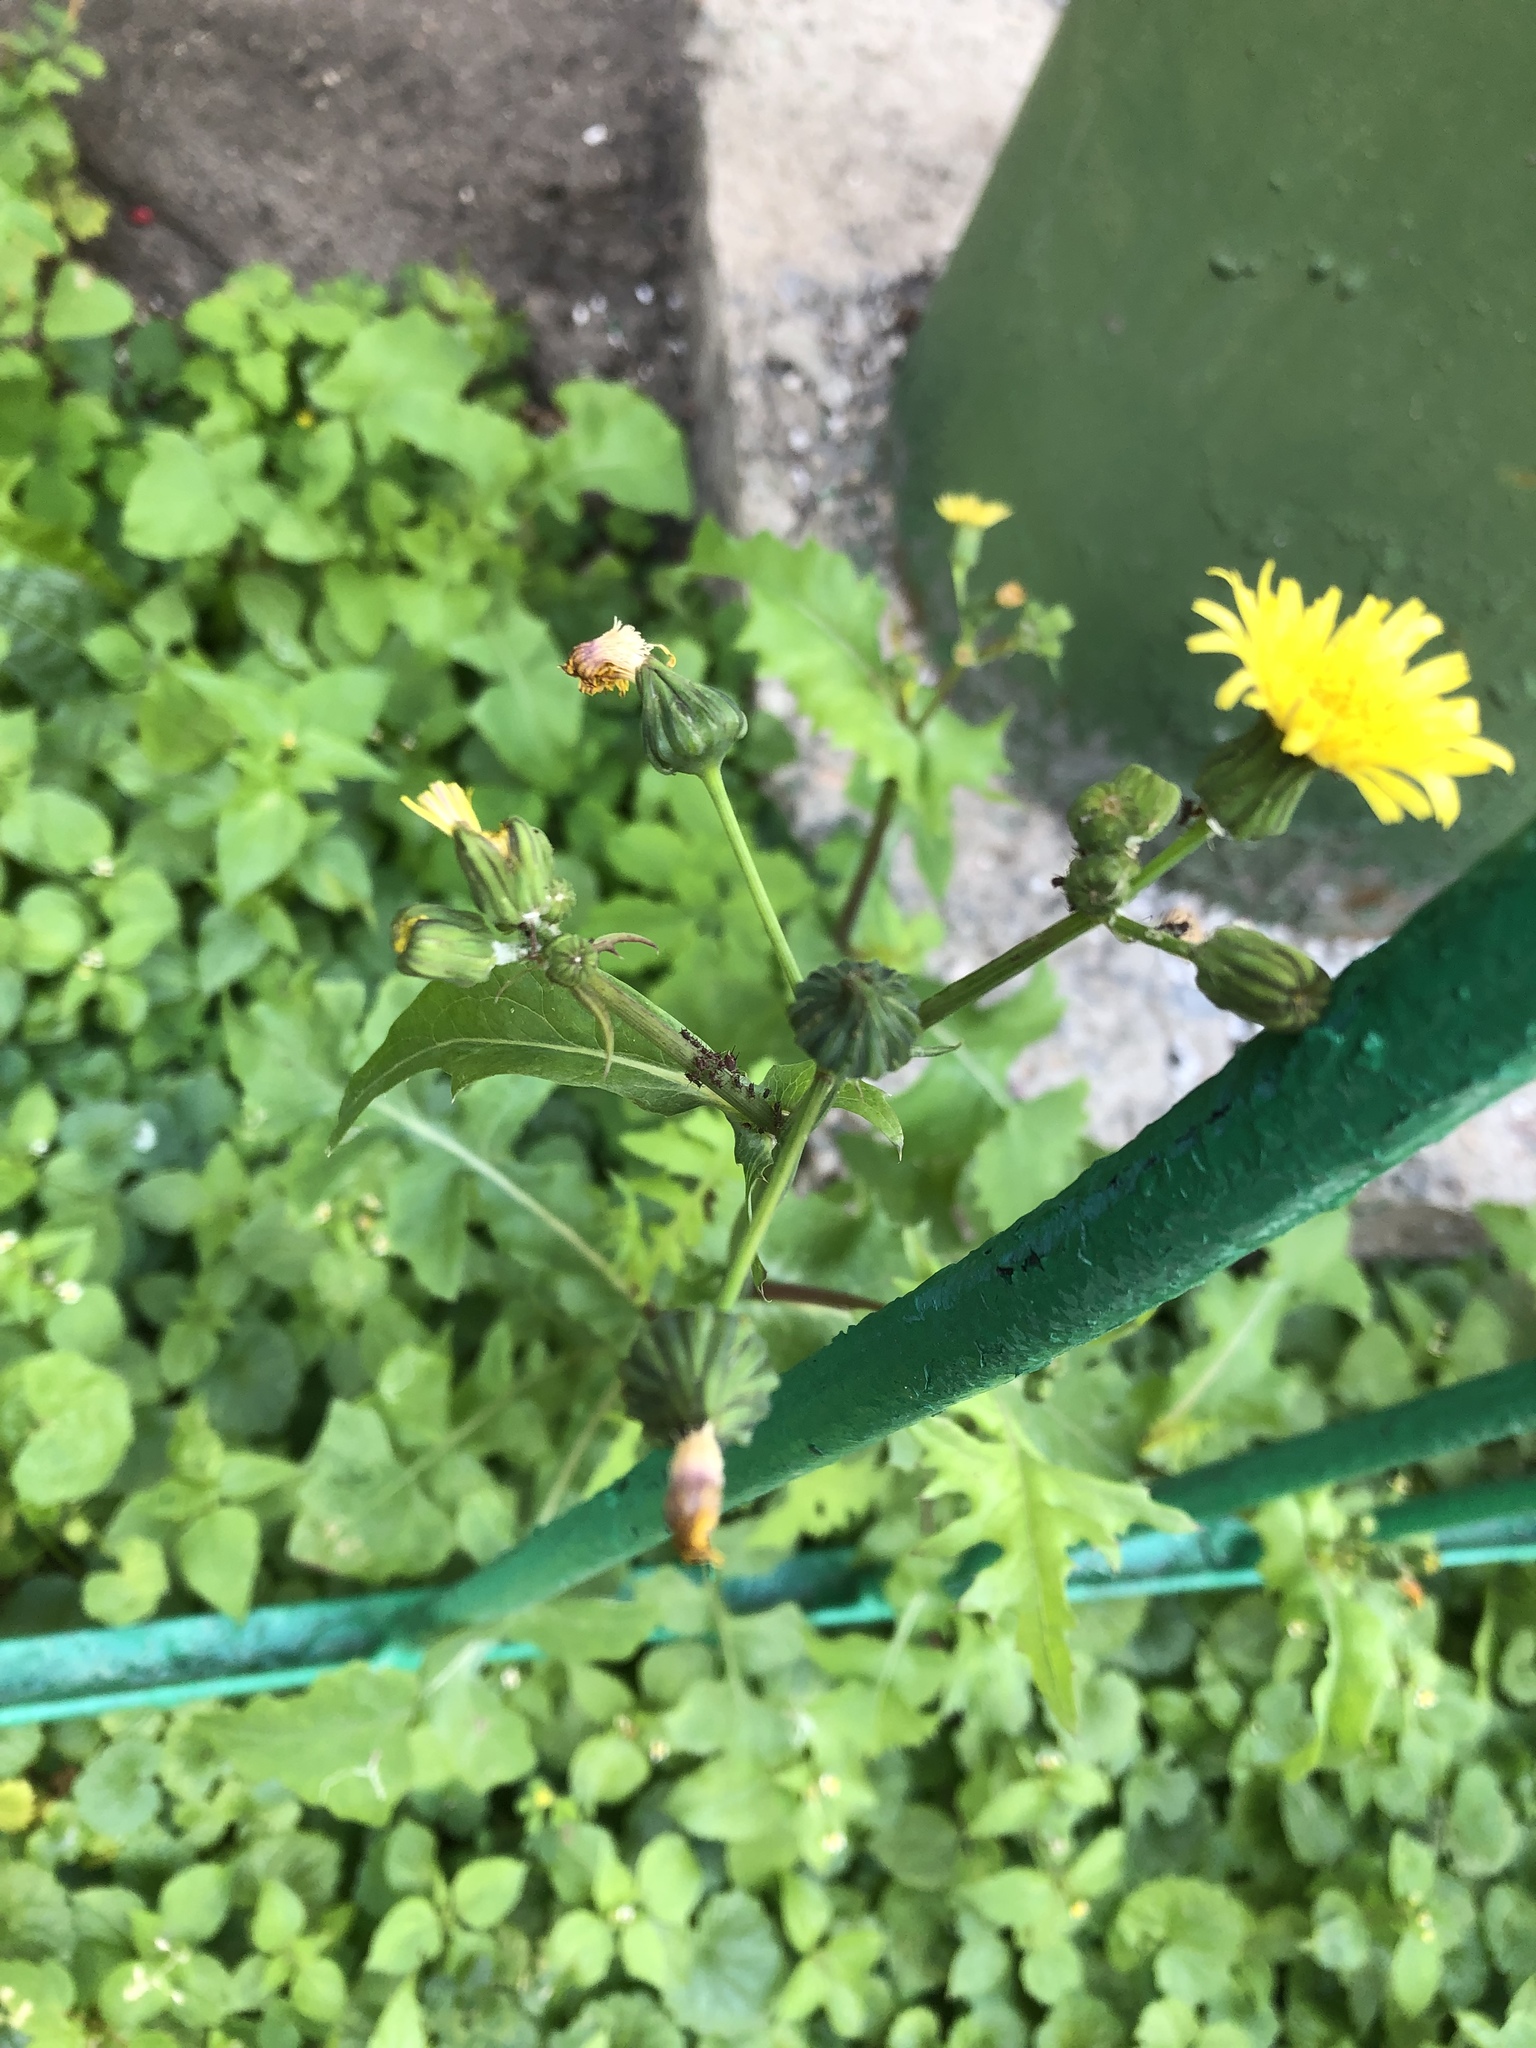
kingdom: Plantae
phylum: Tracheophyta
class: Magnoliopsida
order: Asterales
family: Asteraceae
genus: Sonchus
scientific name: Sonchus oleraceus
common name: Common sowthistle
